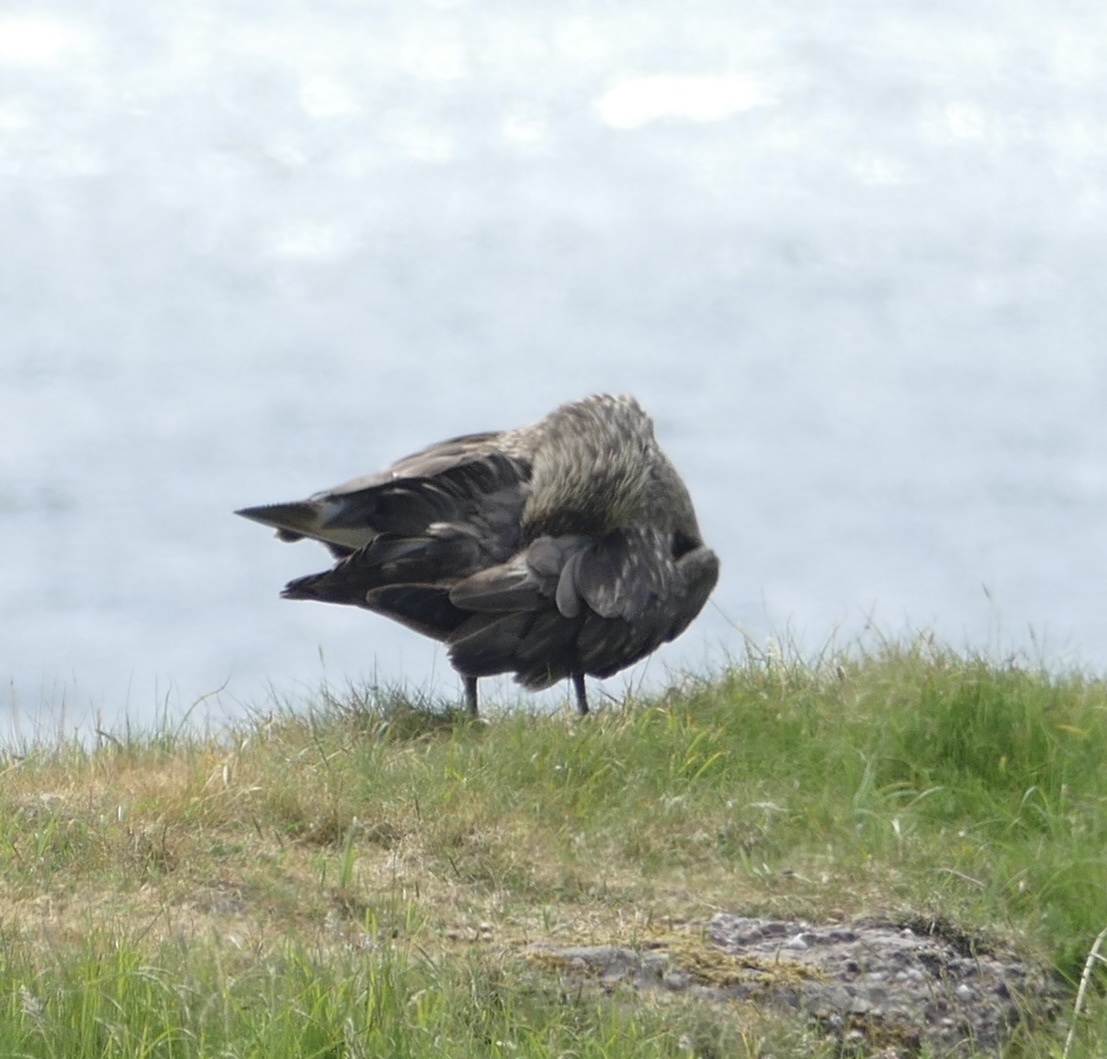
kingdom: Animalia
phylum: Chordata
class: Aves
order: Charadriiformes
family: Stercorariidae
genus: Stercorarius
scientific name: Stercorarius skua
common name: Great skua
